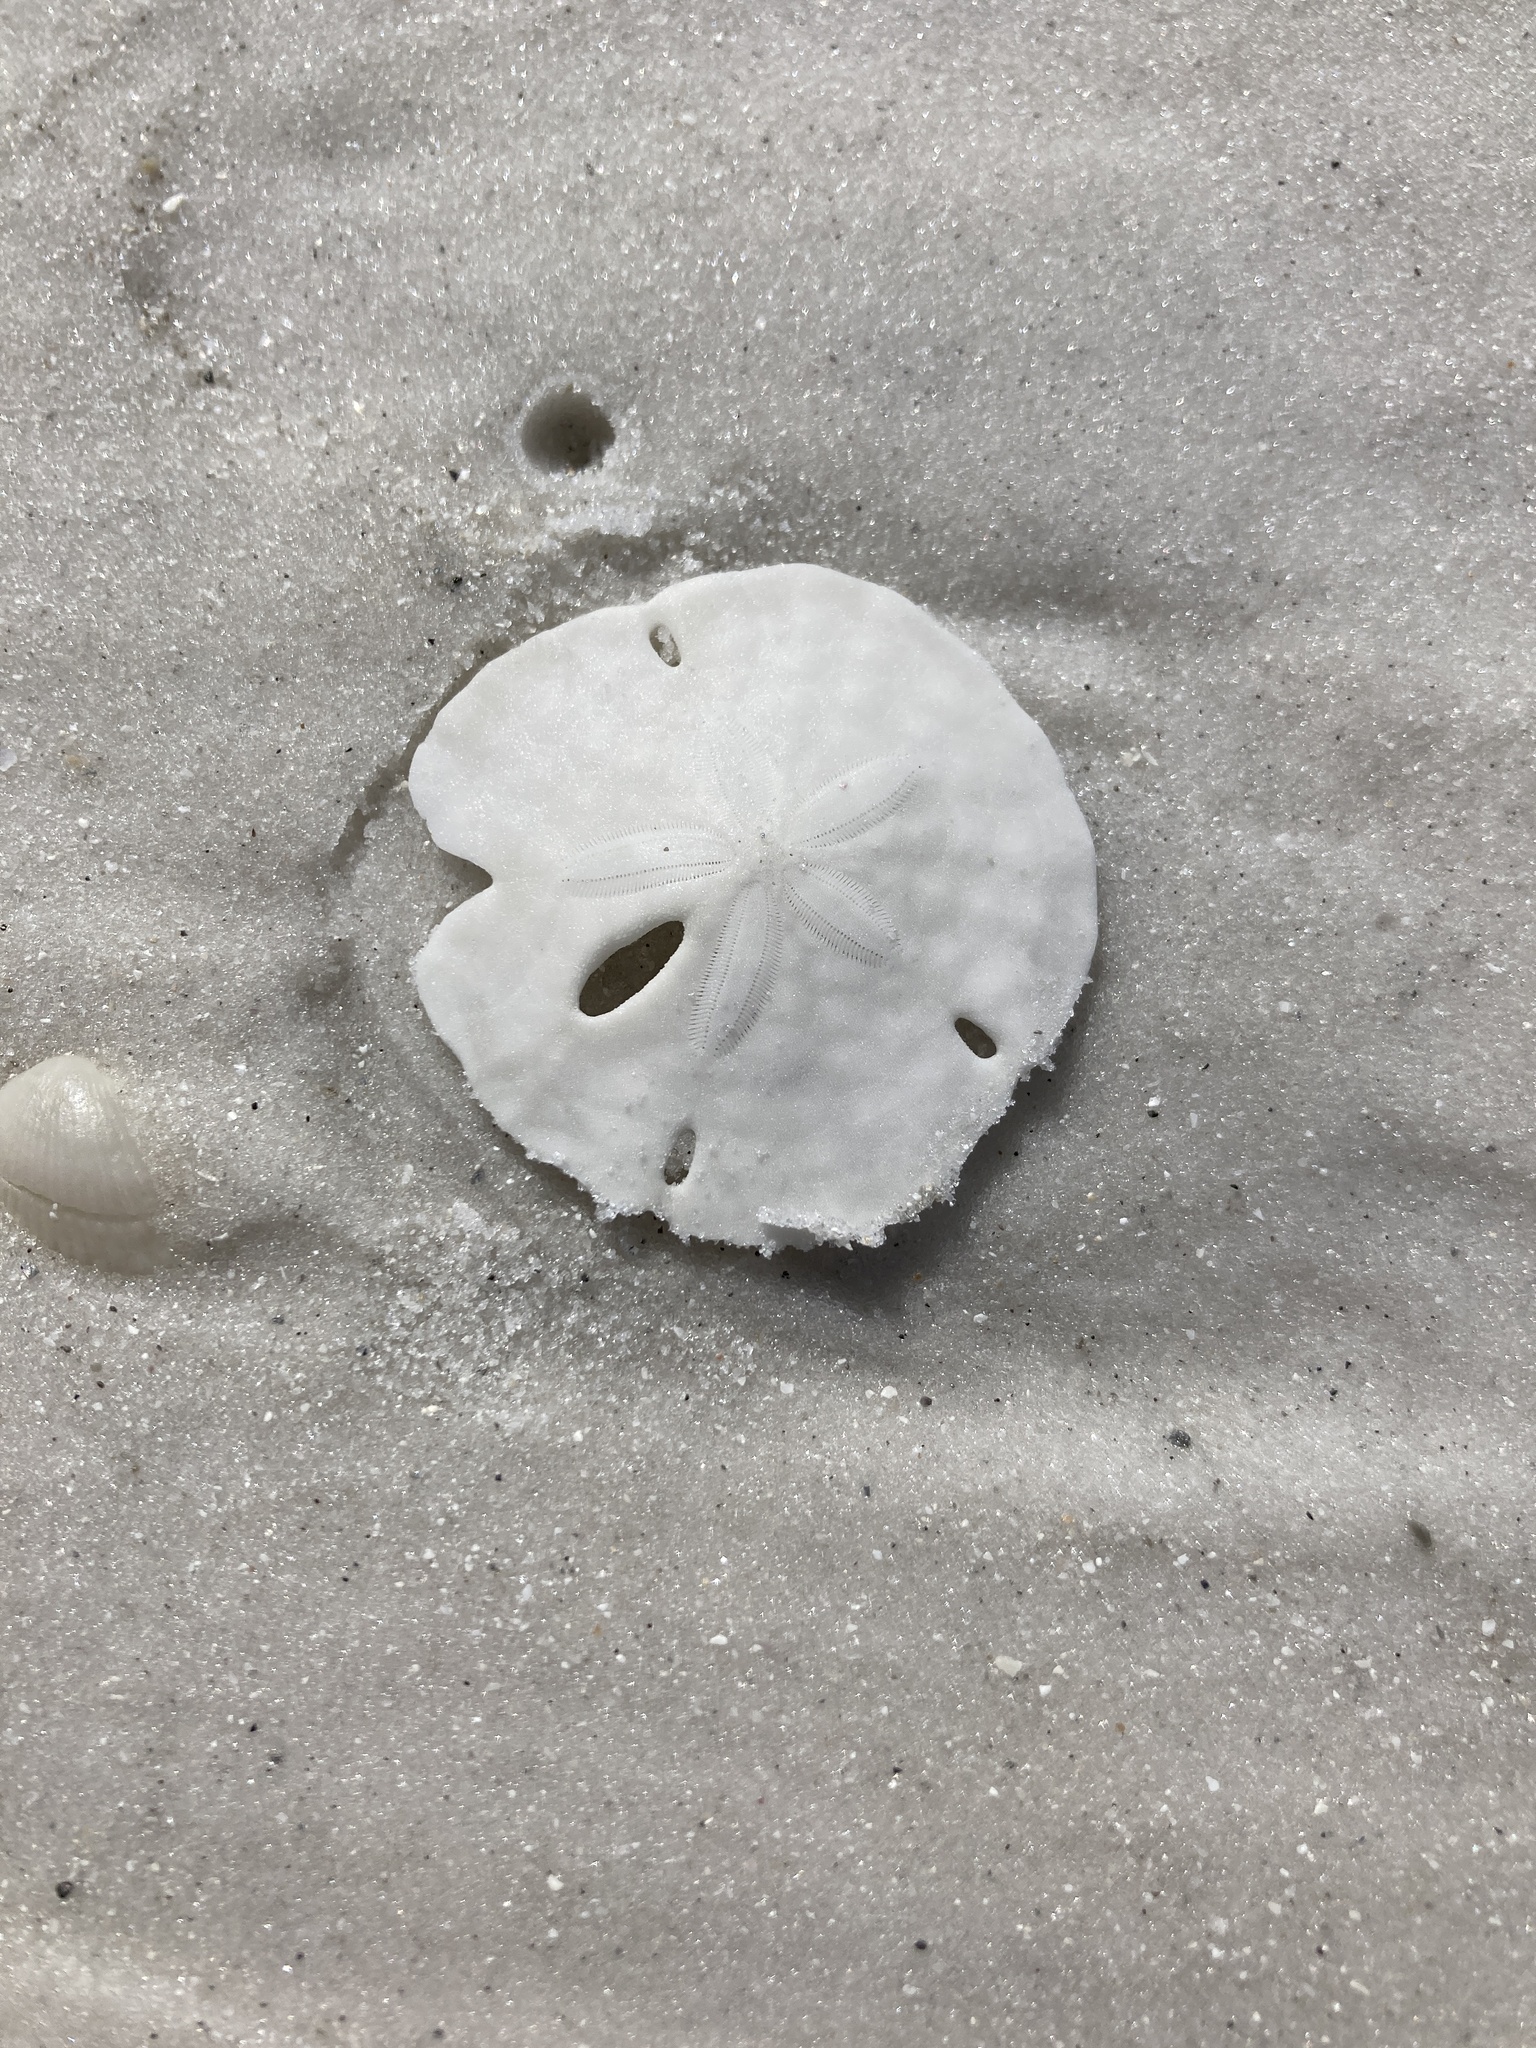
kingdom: Animalia
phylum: Echinodermata
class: Echinoidea
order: Echinolampadacea
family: Mellitidae
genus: Mellita
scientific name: Mellita tenuis
